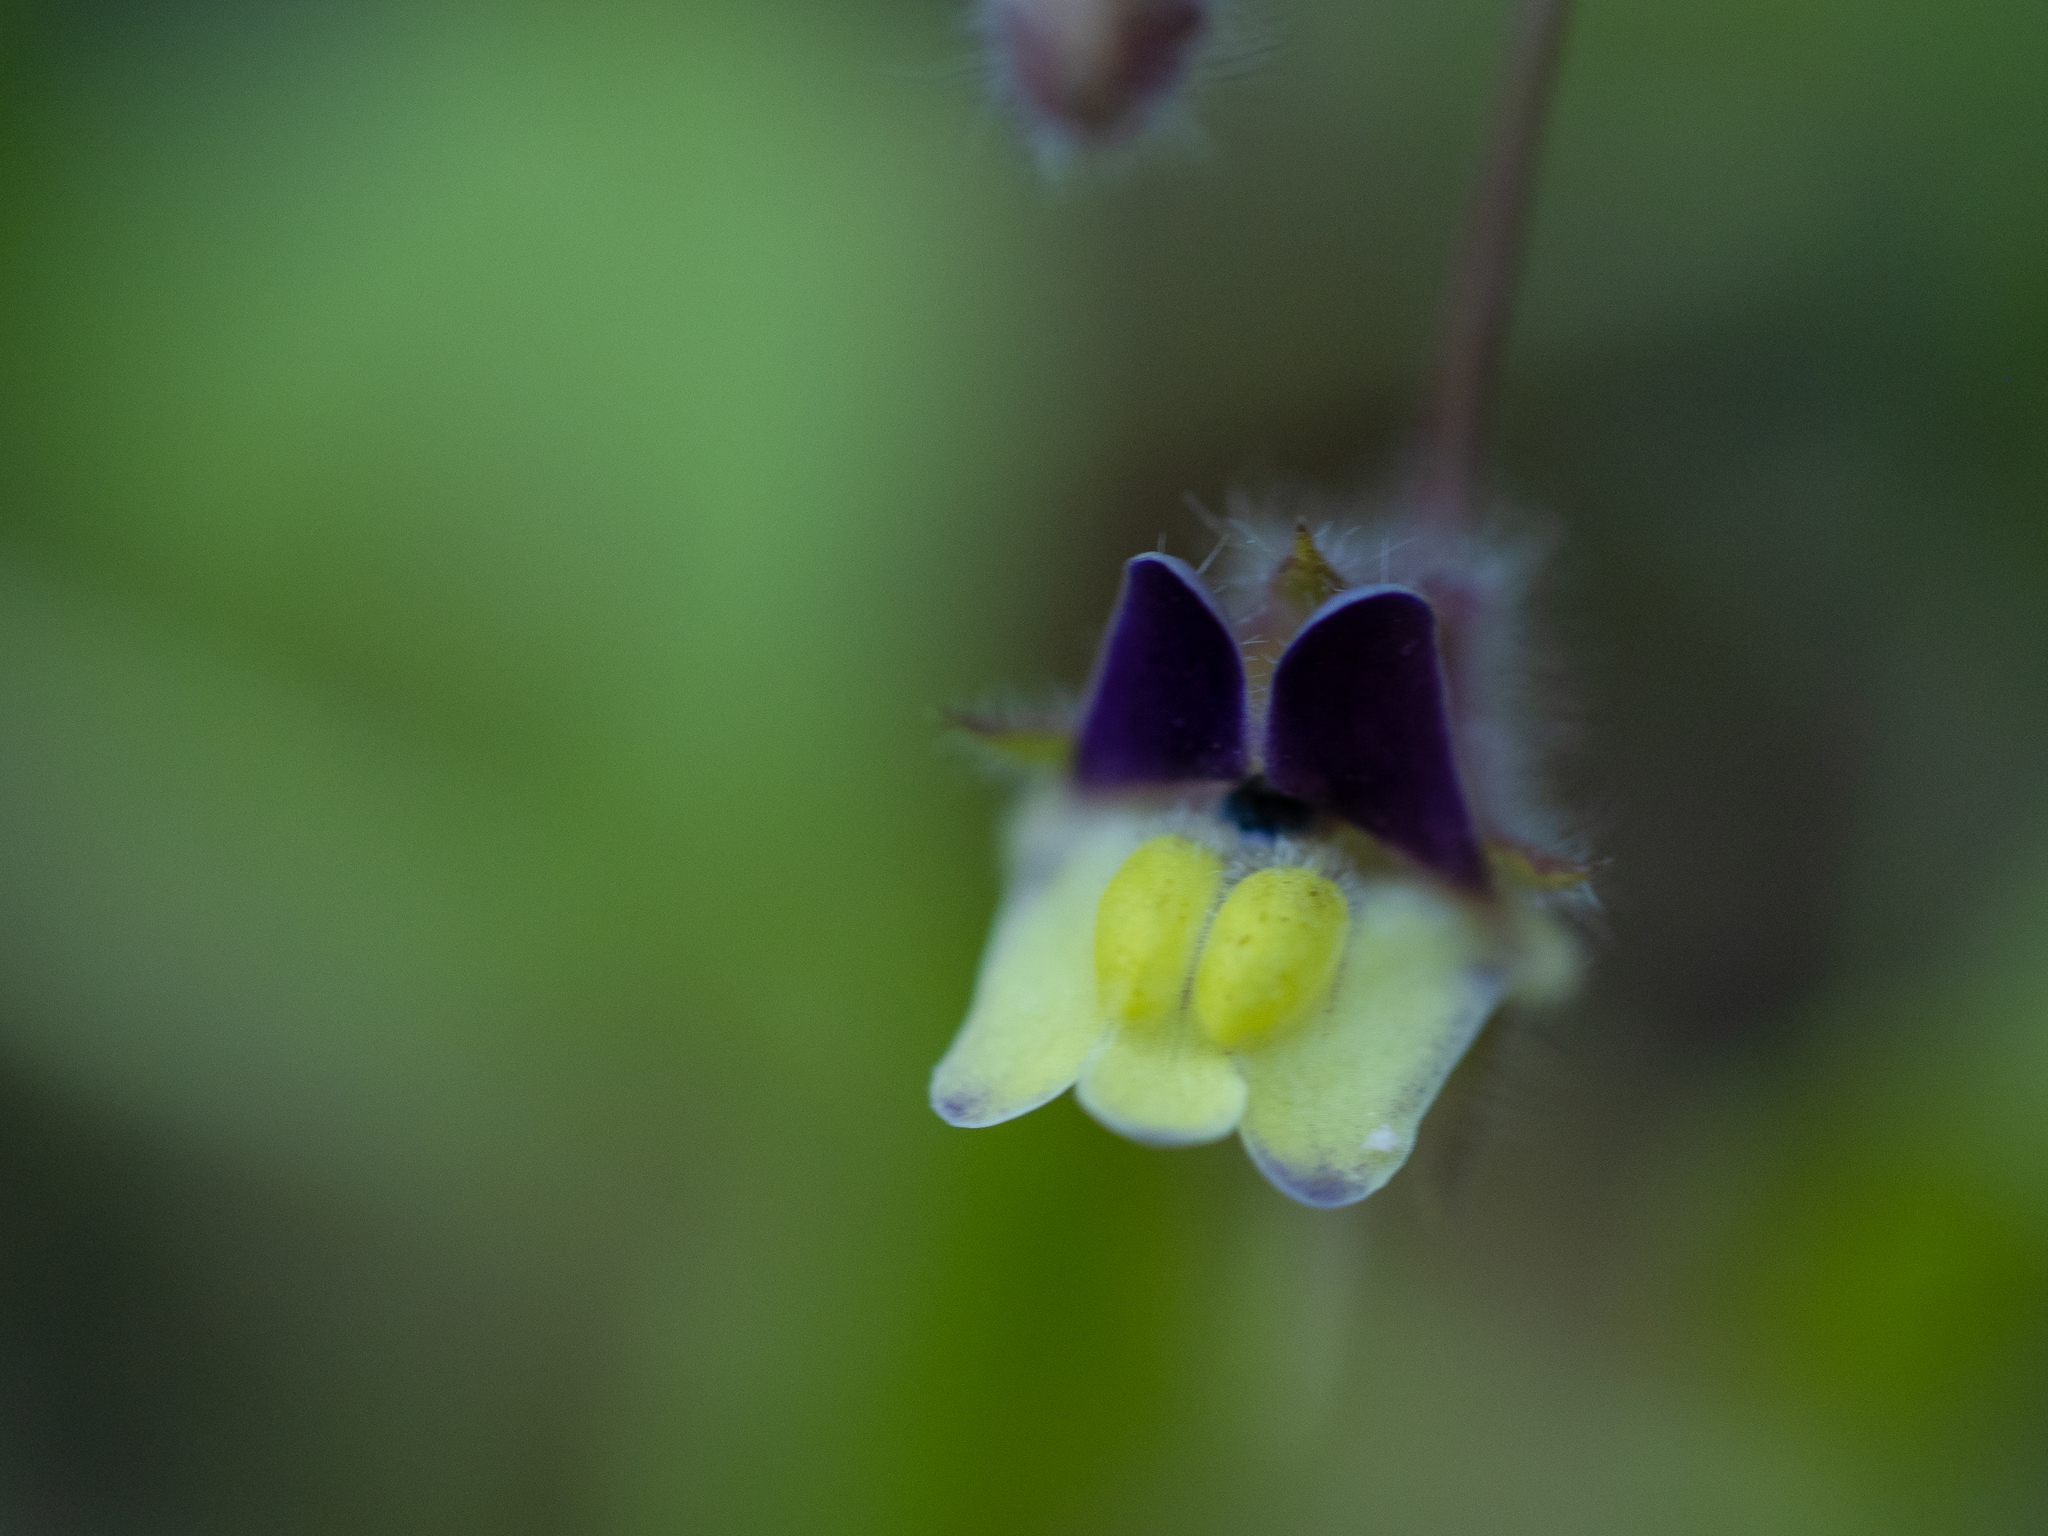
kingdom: Plantae
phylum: Tracheophyta
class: Magnoliopsida
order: Lamiales
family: Plantaginaceae
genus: Kickxia
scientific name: Kickxia elatine
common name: Sharp-leaved fluellen
